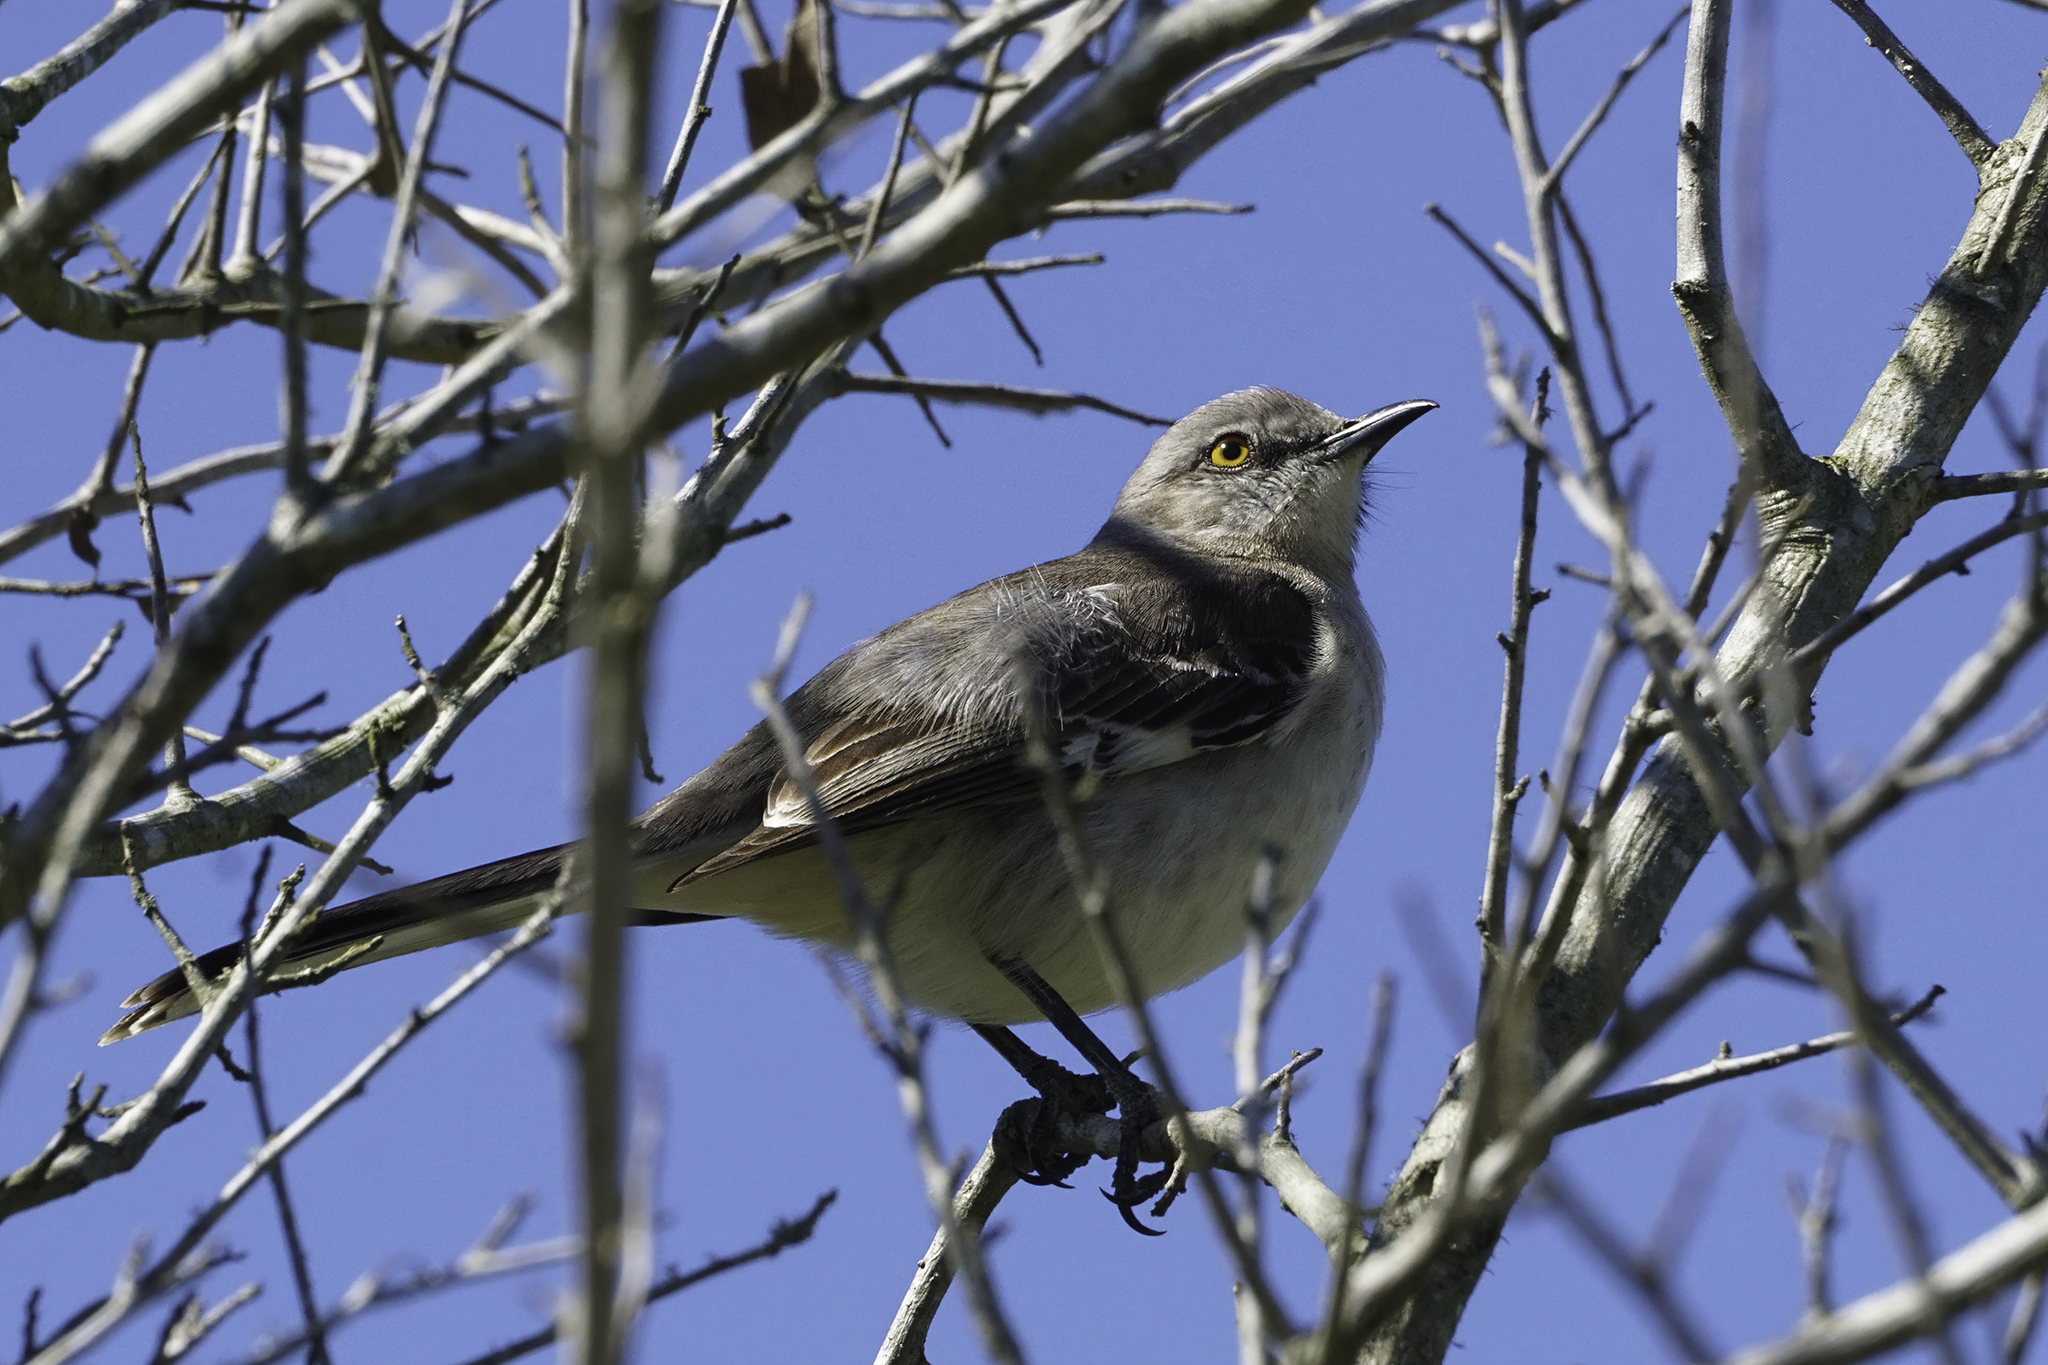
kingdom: Animalia
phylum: Chordata
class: Aves
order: Passeriformes
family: Mimidae
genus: Mimus
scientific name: Mimus polyglottos
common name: Northern mockingbird
